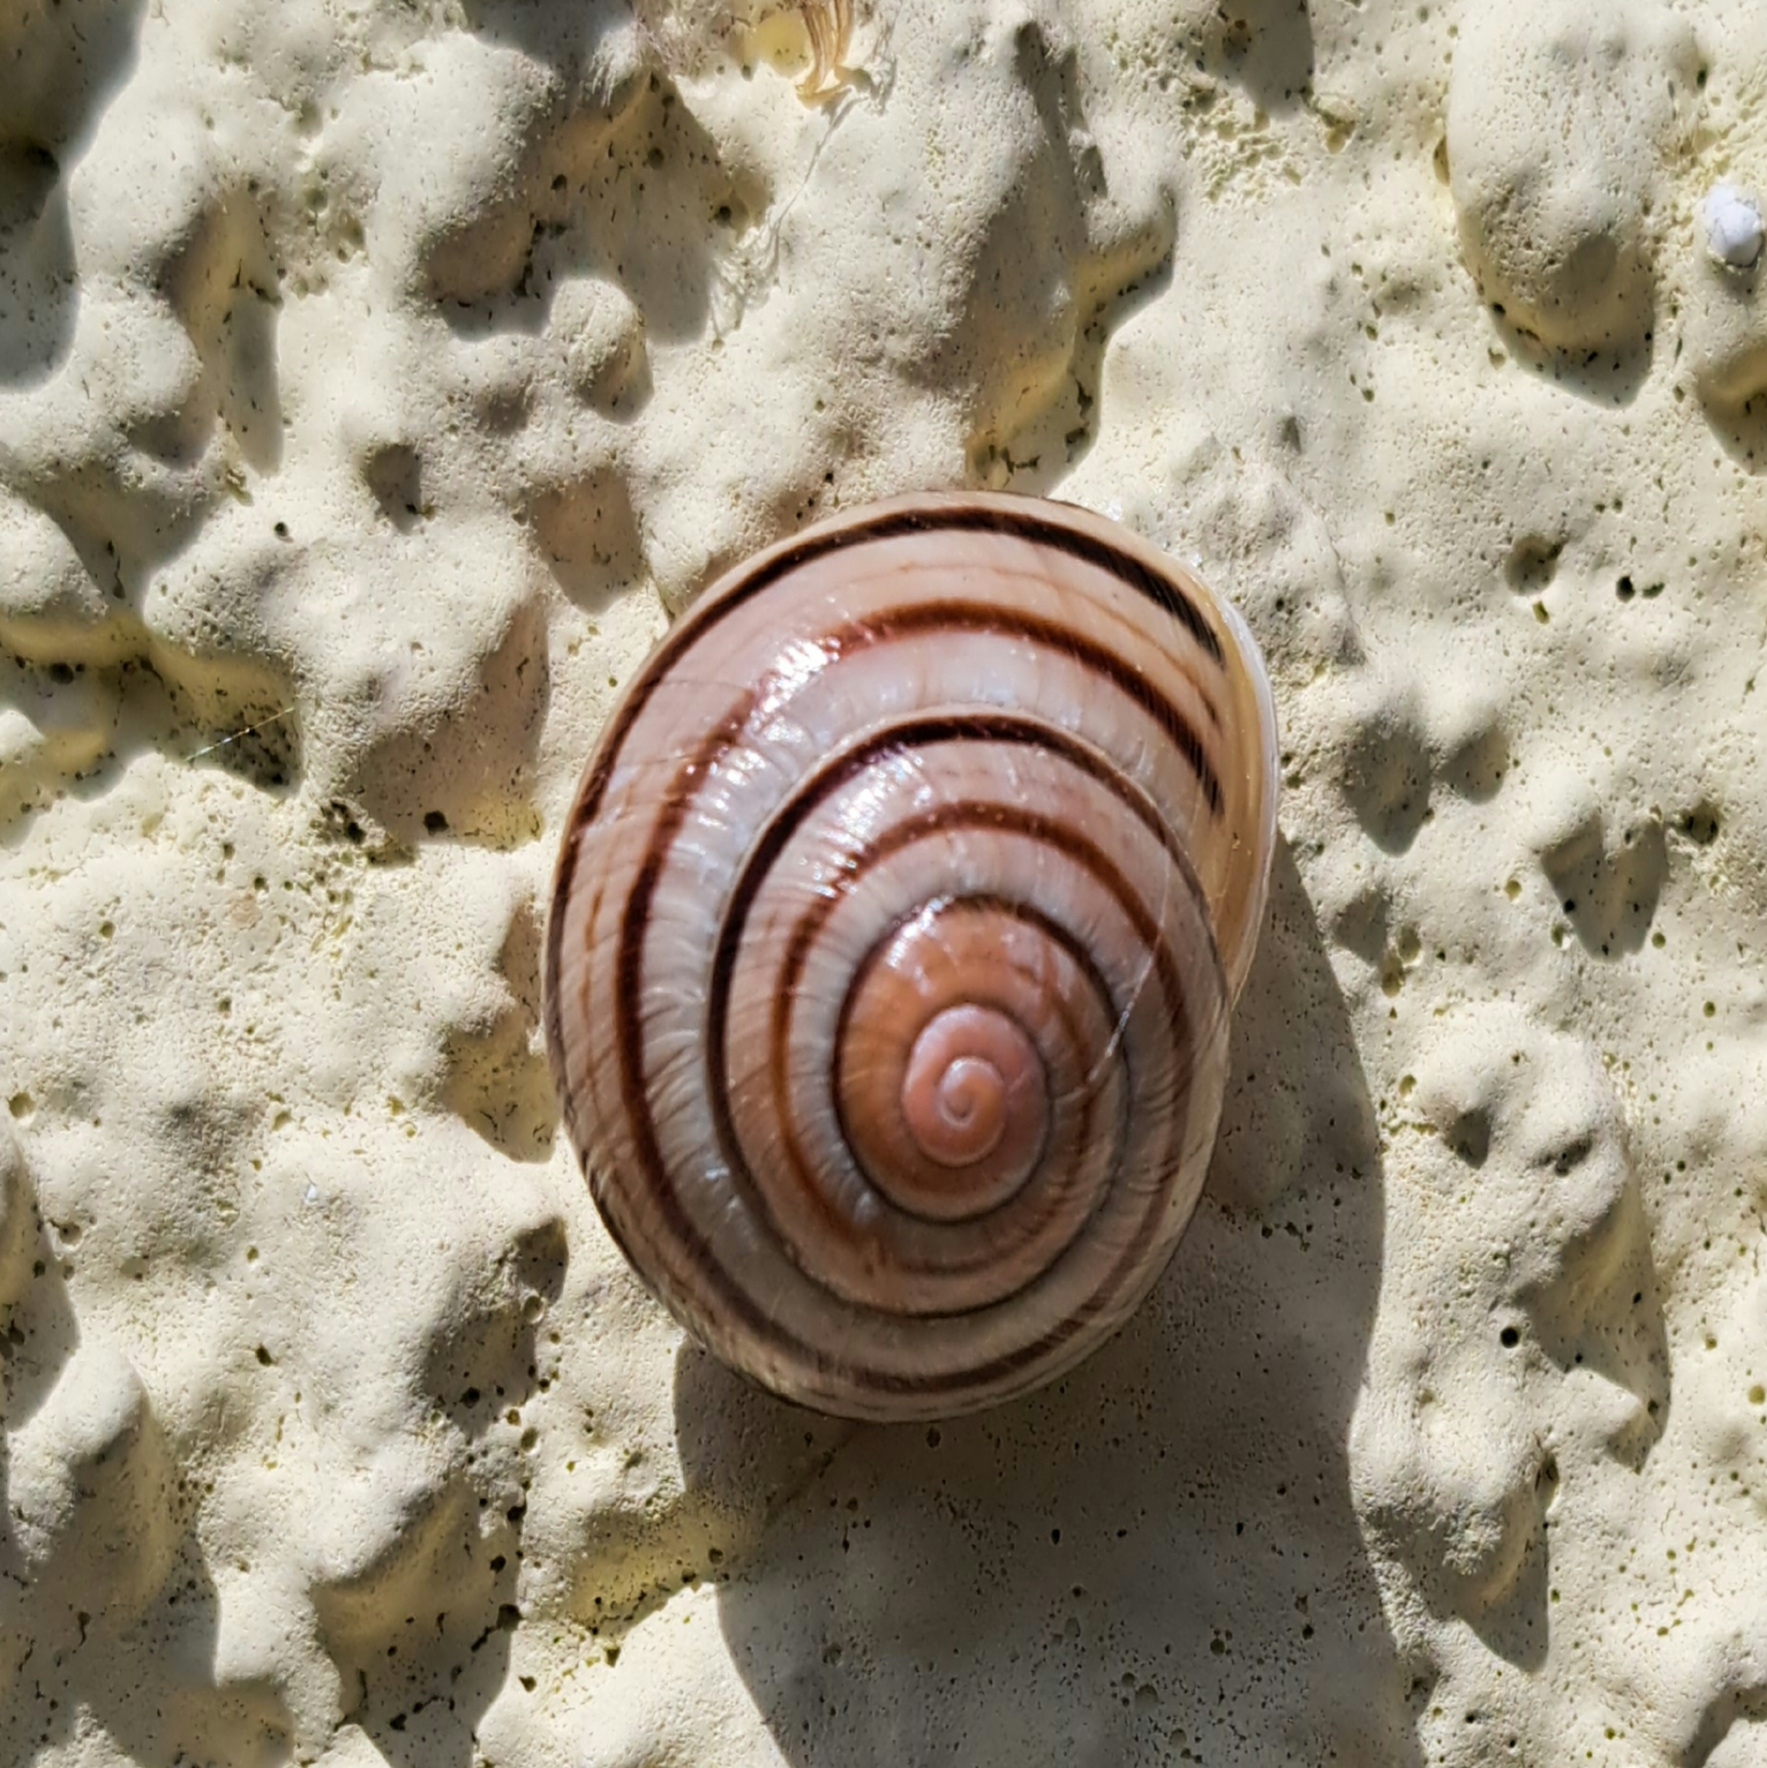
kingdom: Animalia
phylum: Mollusca
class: Gastropoda
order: Stylommatophora
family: Helicidae
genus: Cepaea
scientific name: Cepaea hortensis
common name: White-lip gardensnail
